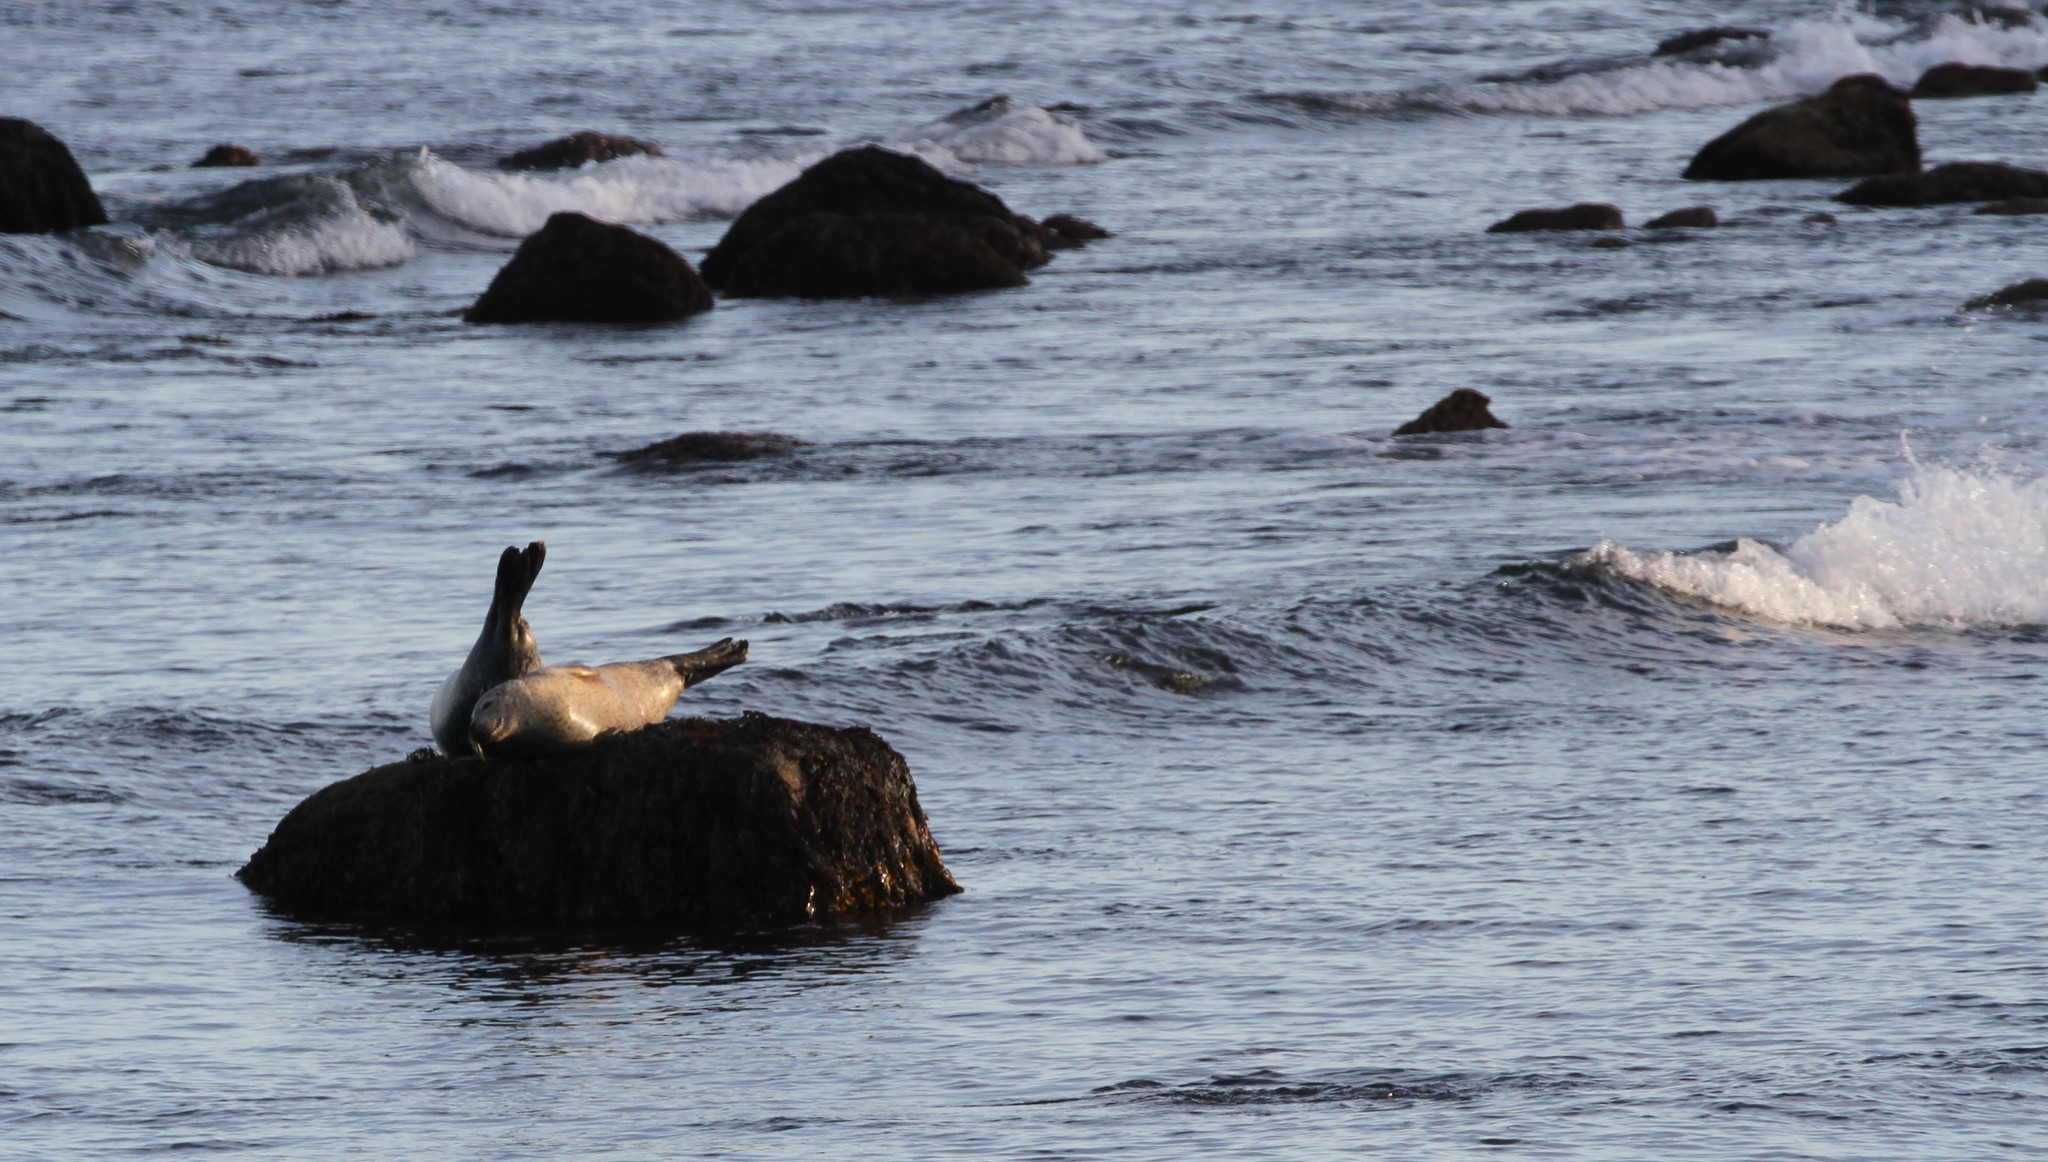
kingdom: Animalia
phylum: Chordata
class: Mammalia
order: Carnivora
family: Phocidae
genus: Phoca
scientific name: Phoca vitulina
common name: Harbor seal
